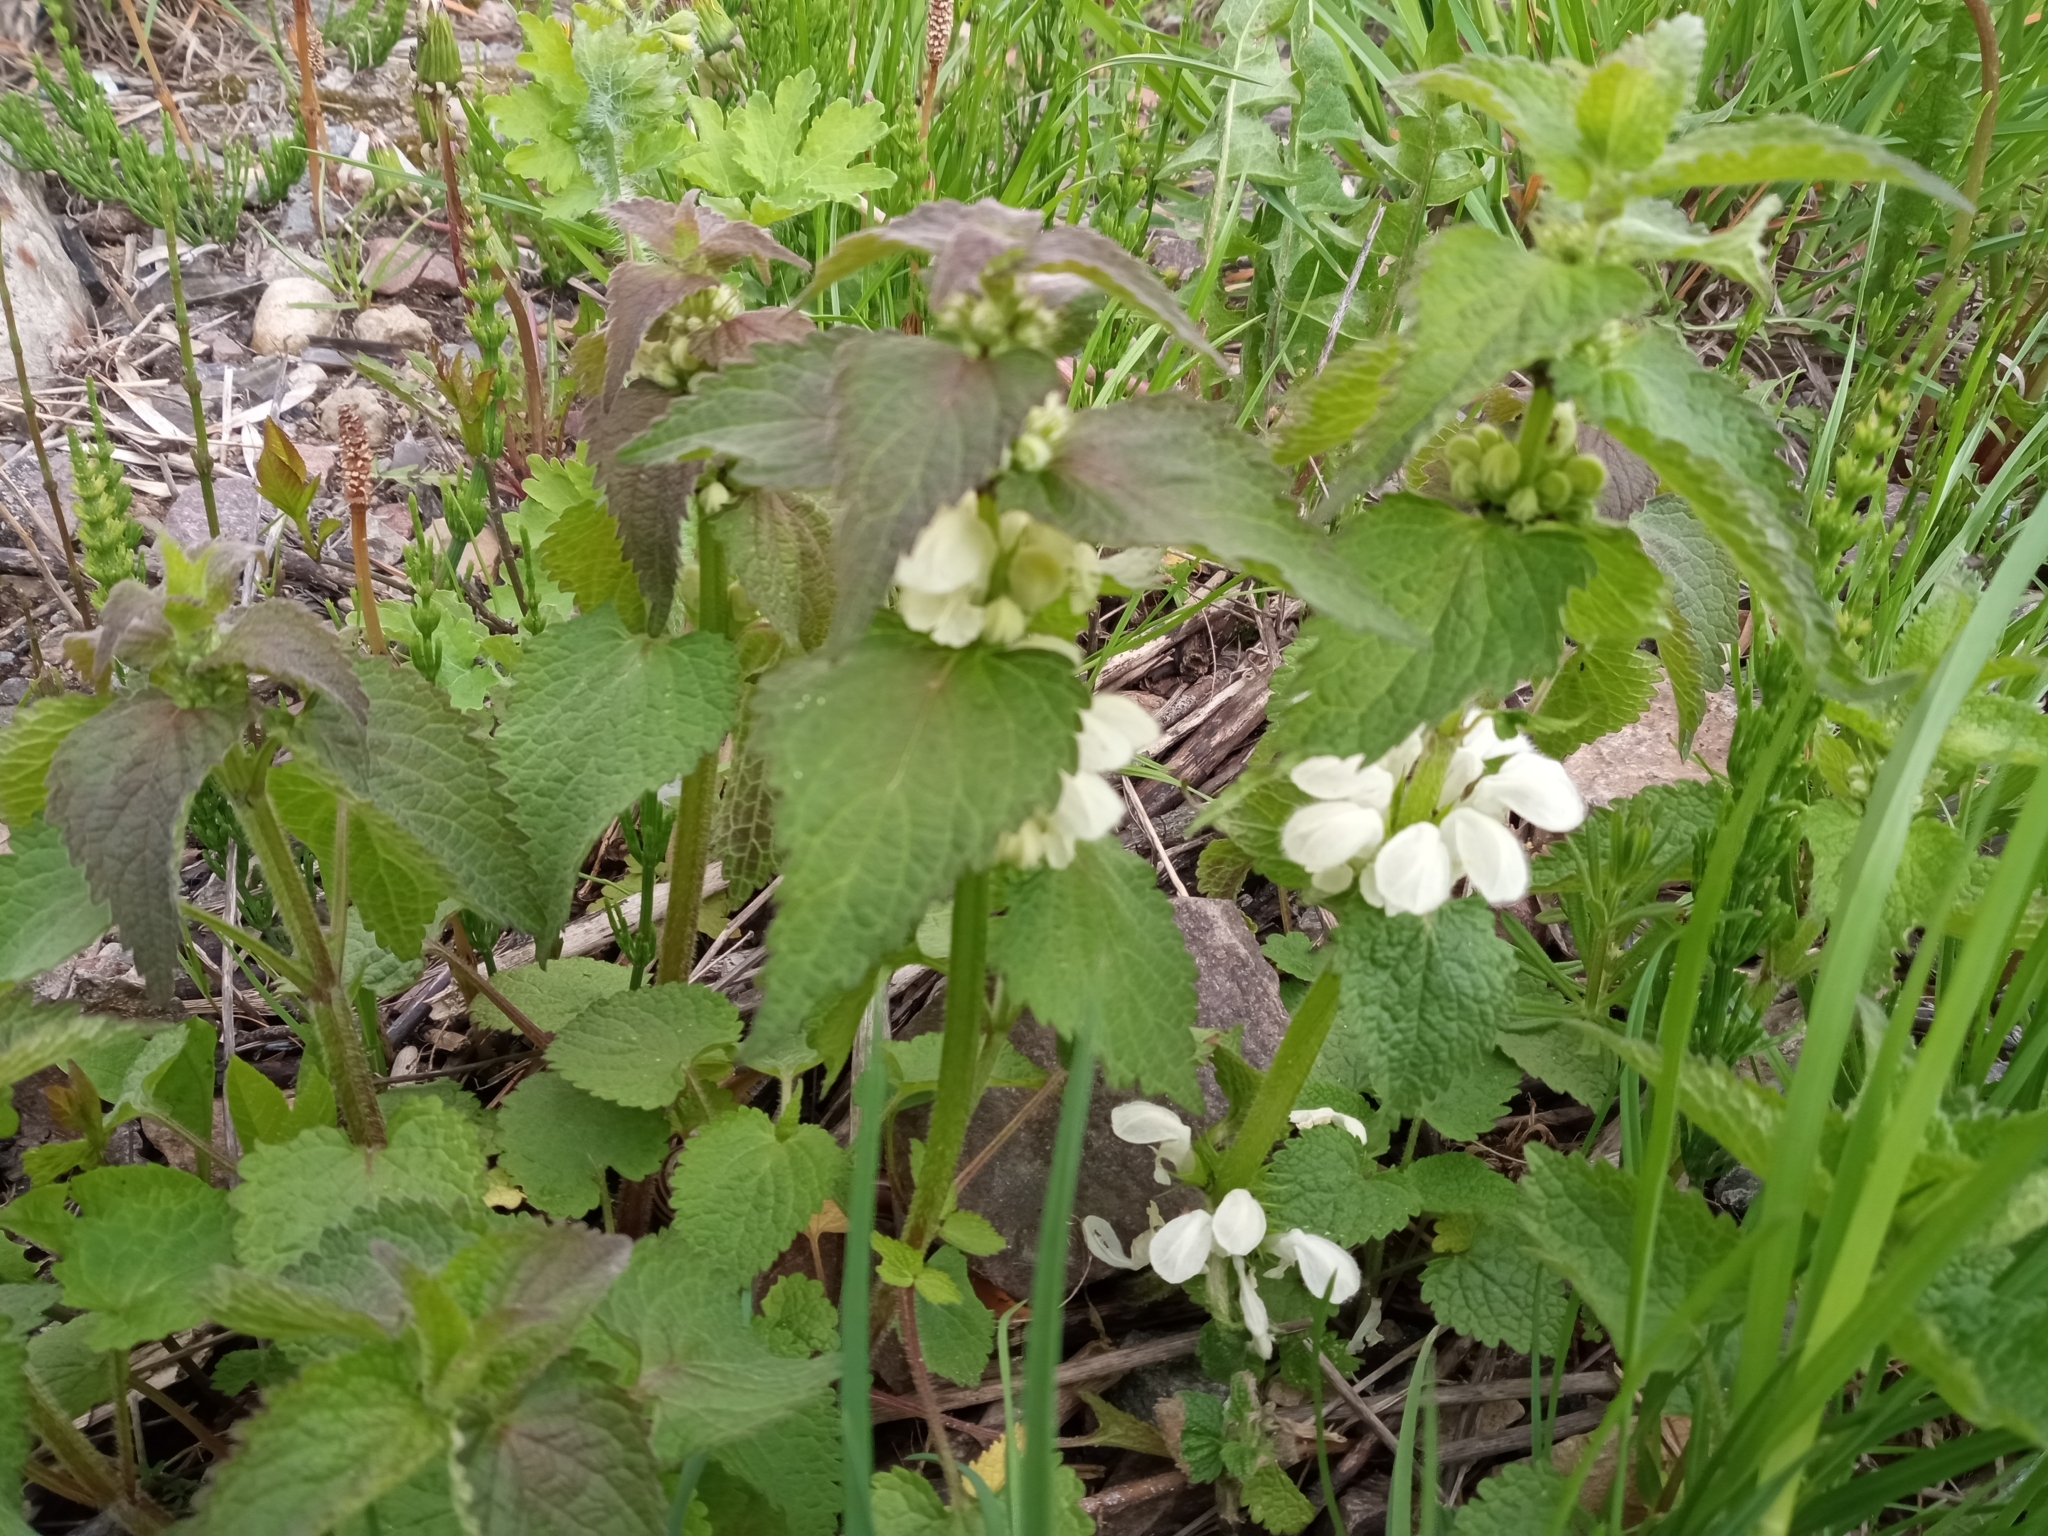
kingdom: Plantae
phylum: Tracheophyta
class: Magnoliopsida
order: Lamiales
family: Lamiaceae
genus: Lamium
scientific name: Lamium album
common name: White dead-nettle
